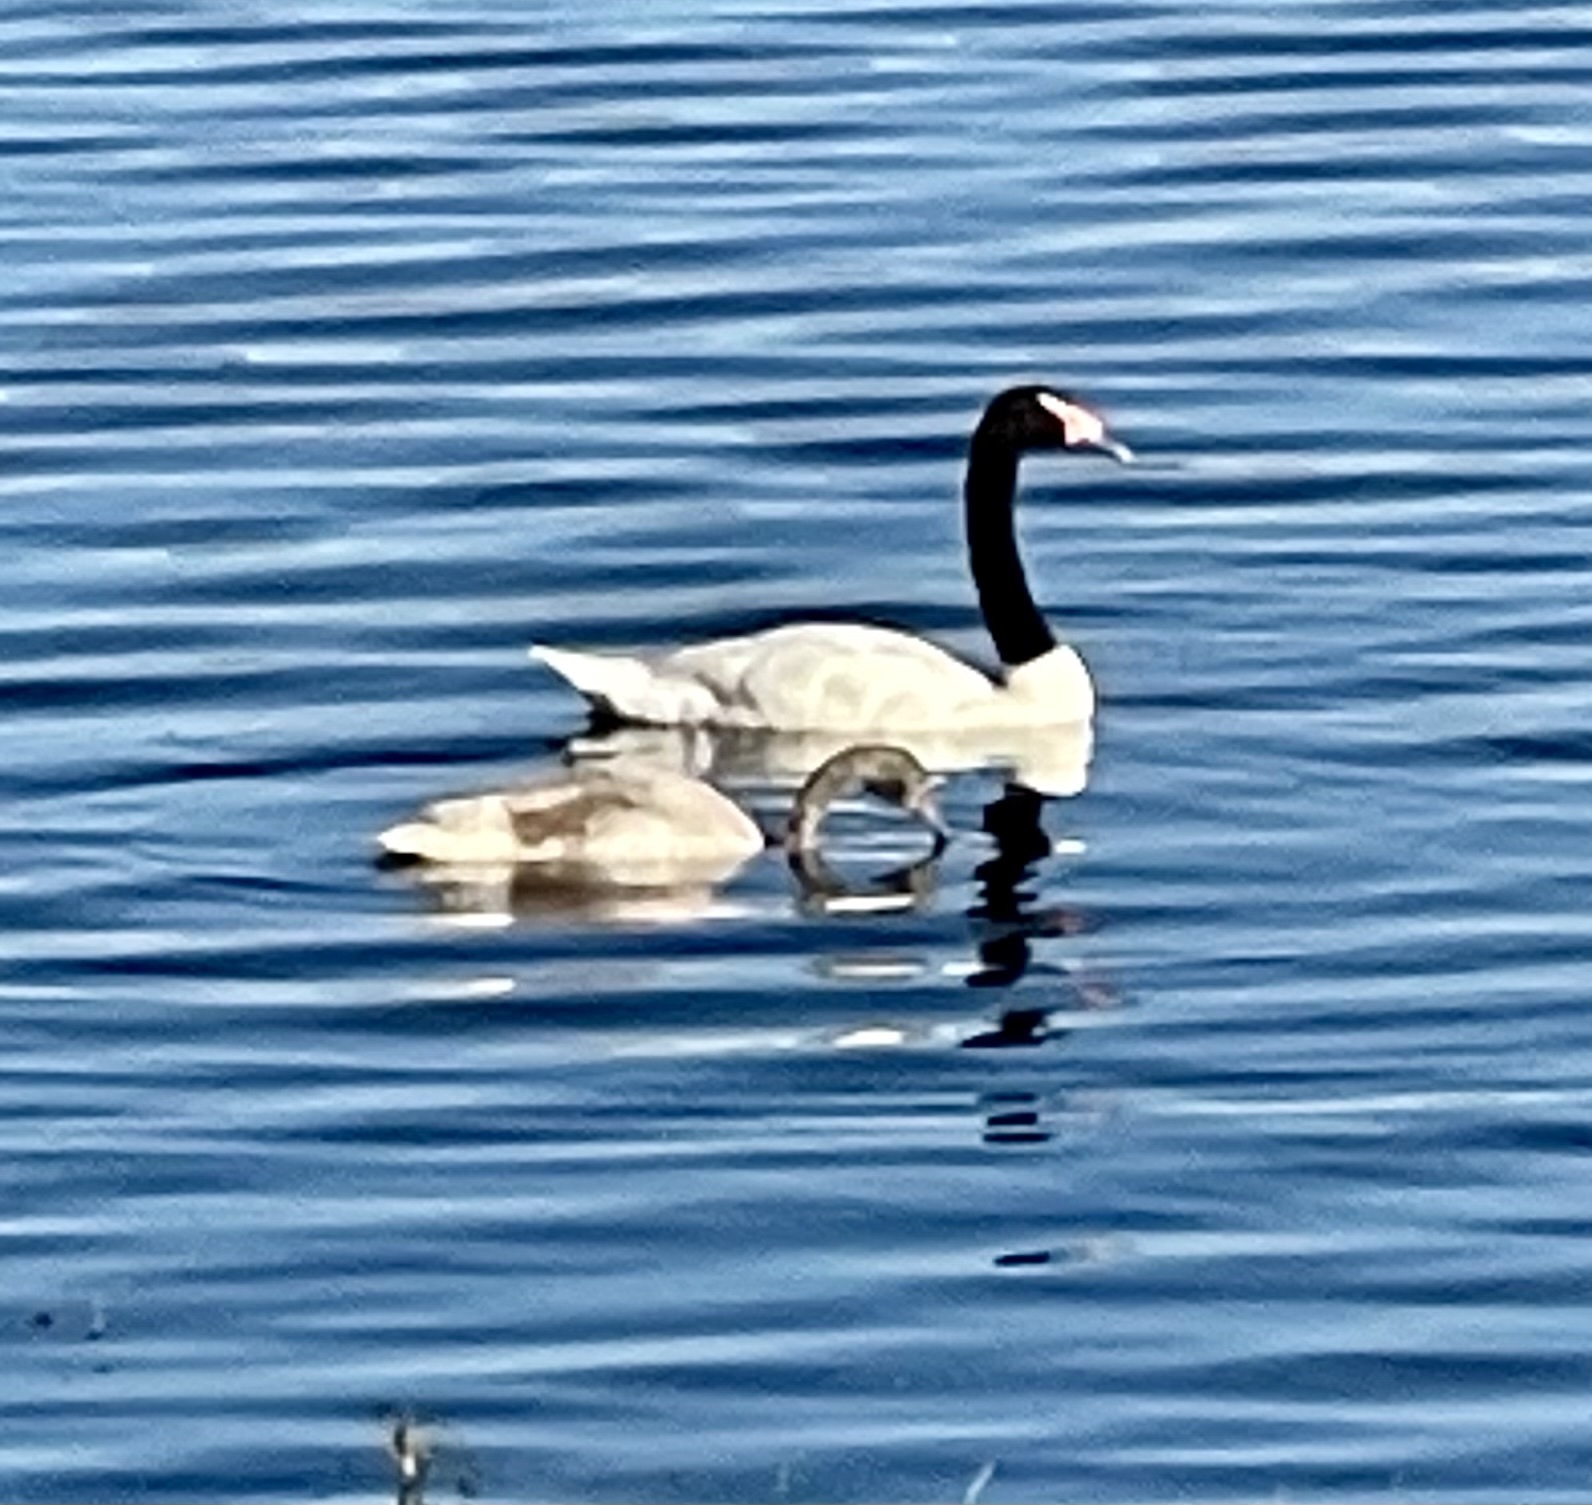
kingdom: Animalia
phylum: Chordata
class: Aves
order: Anseriformes
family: Anatidae
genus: Cygnus
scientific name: Cygnus melancoryphus
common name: Black-necked swan
